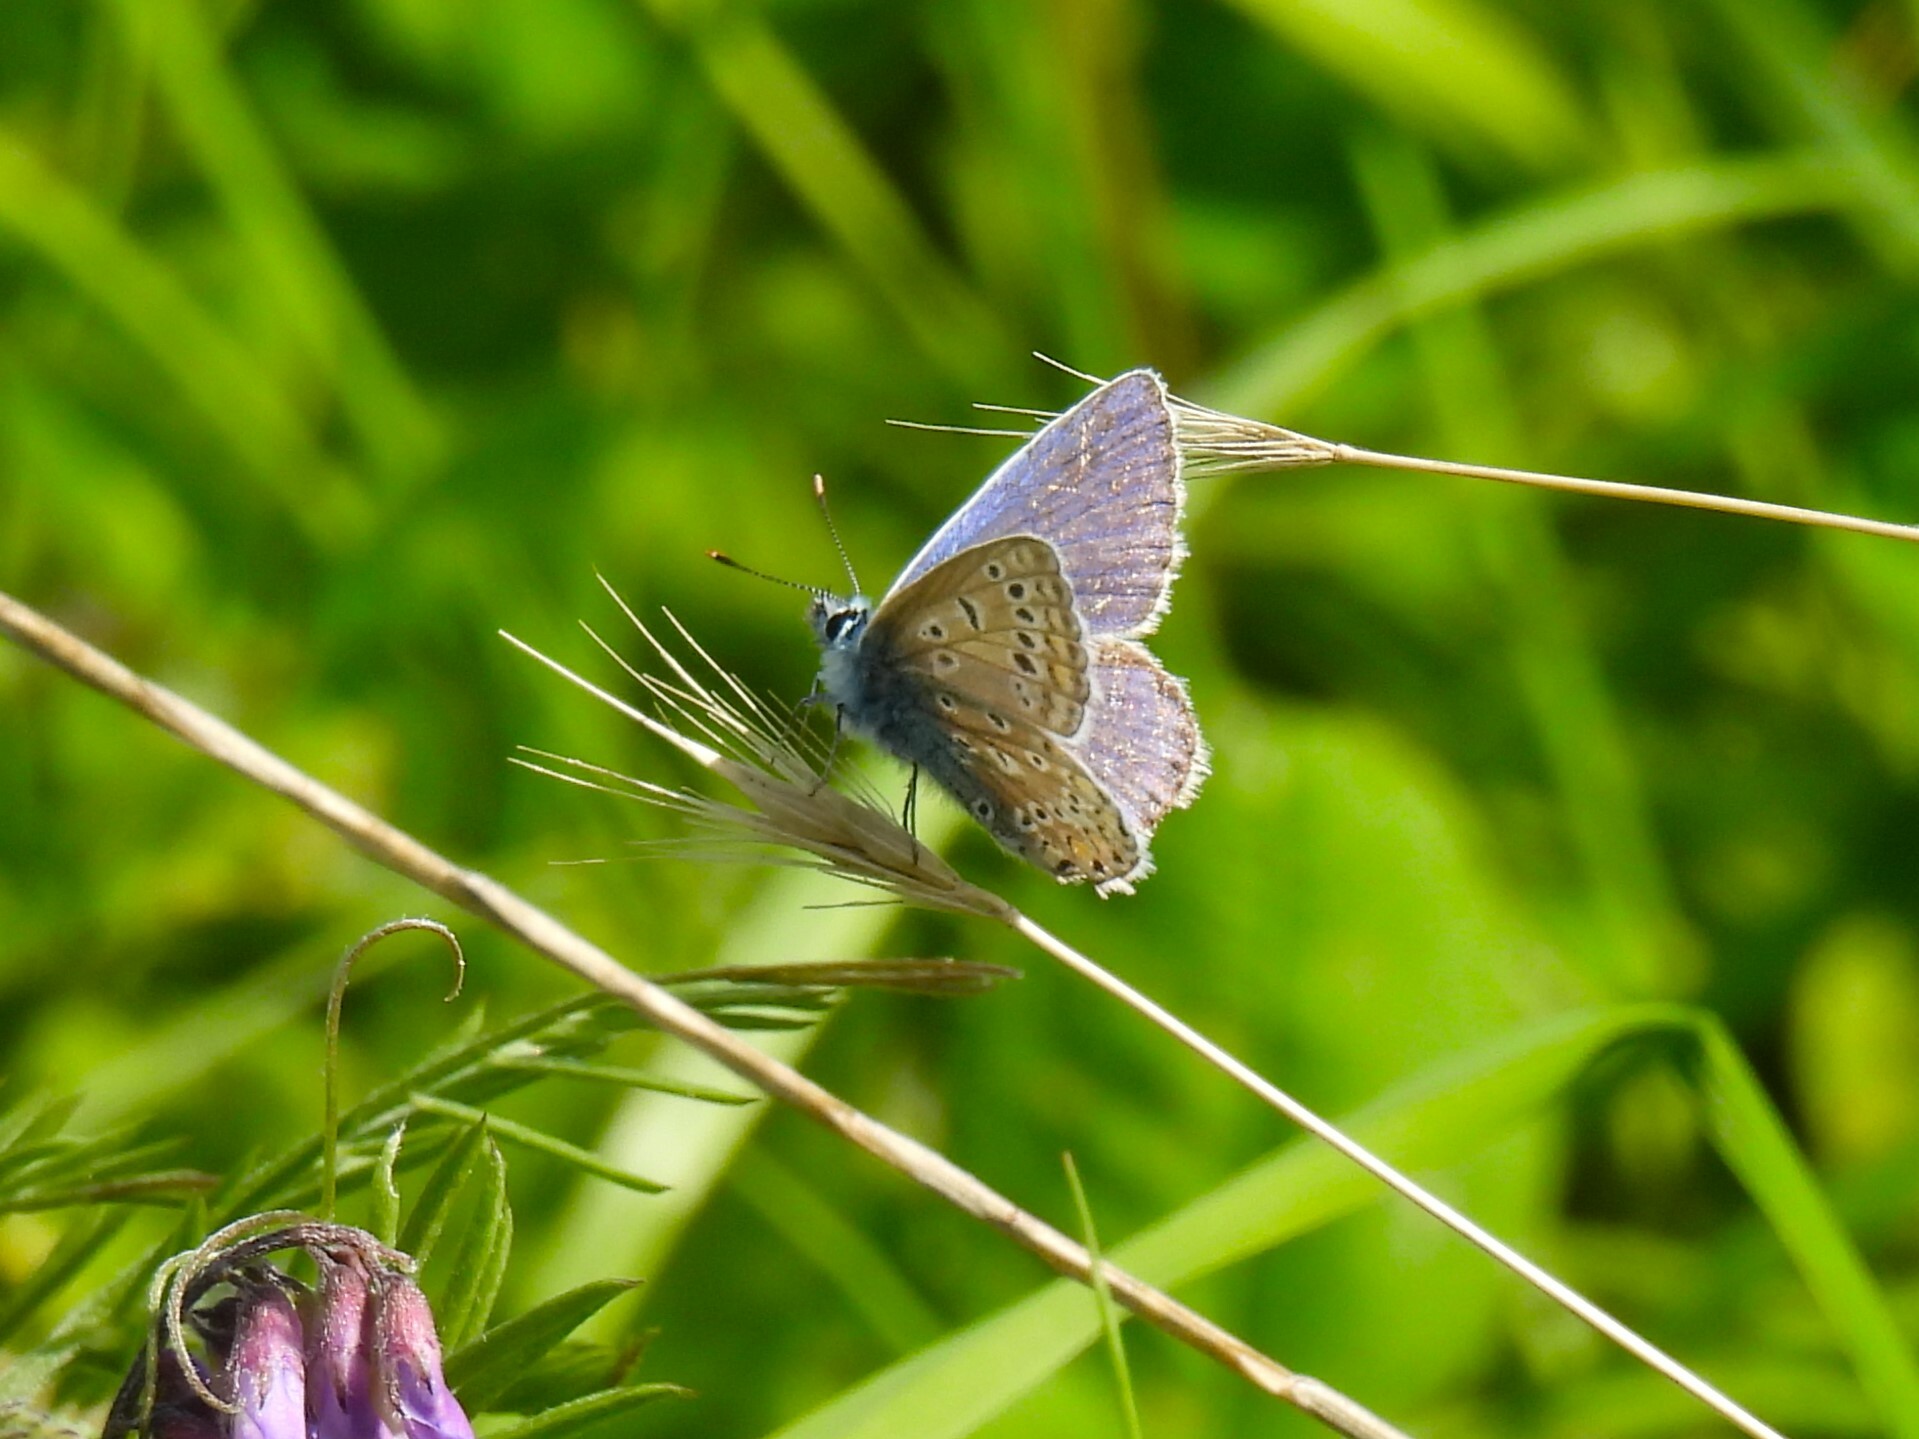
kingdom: Animalia
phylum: Arthropoda
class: Insecta
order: Lepidoptera
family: Lycaenidae
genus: Polyommatus
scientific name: Polyommatus icarus
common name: Common blue
